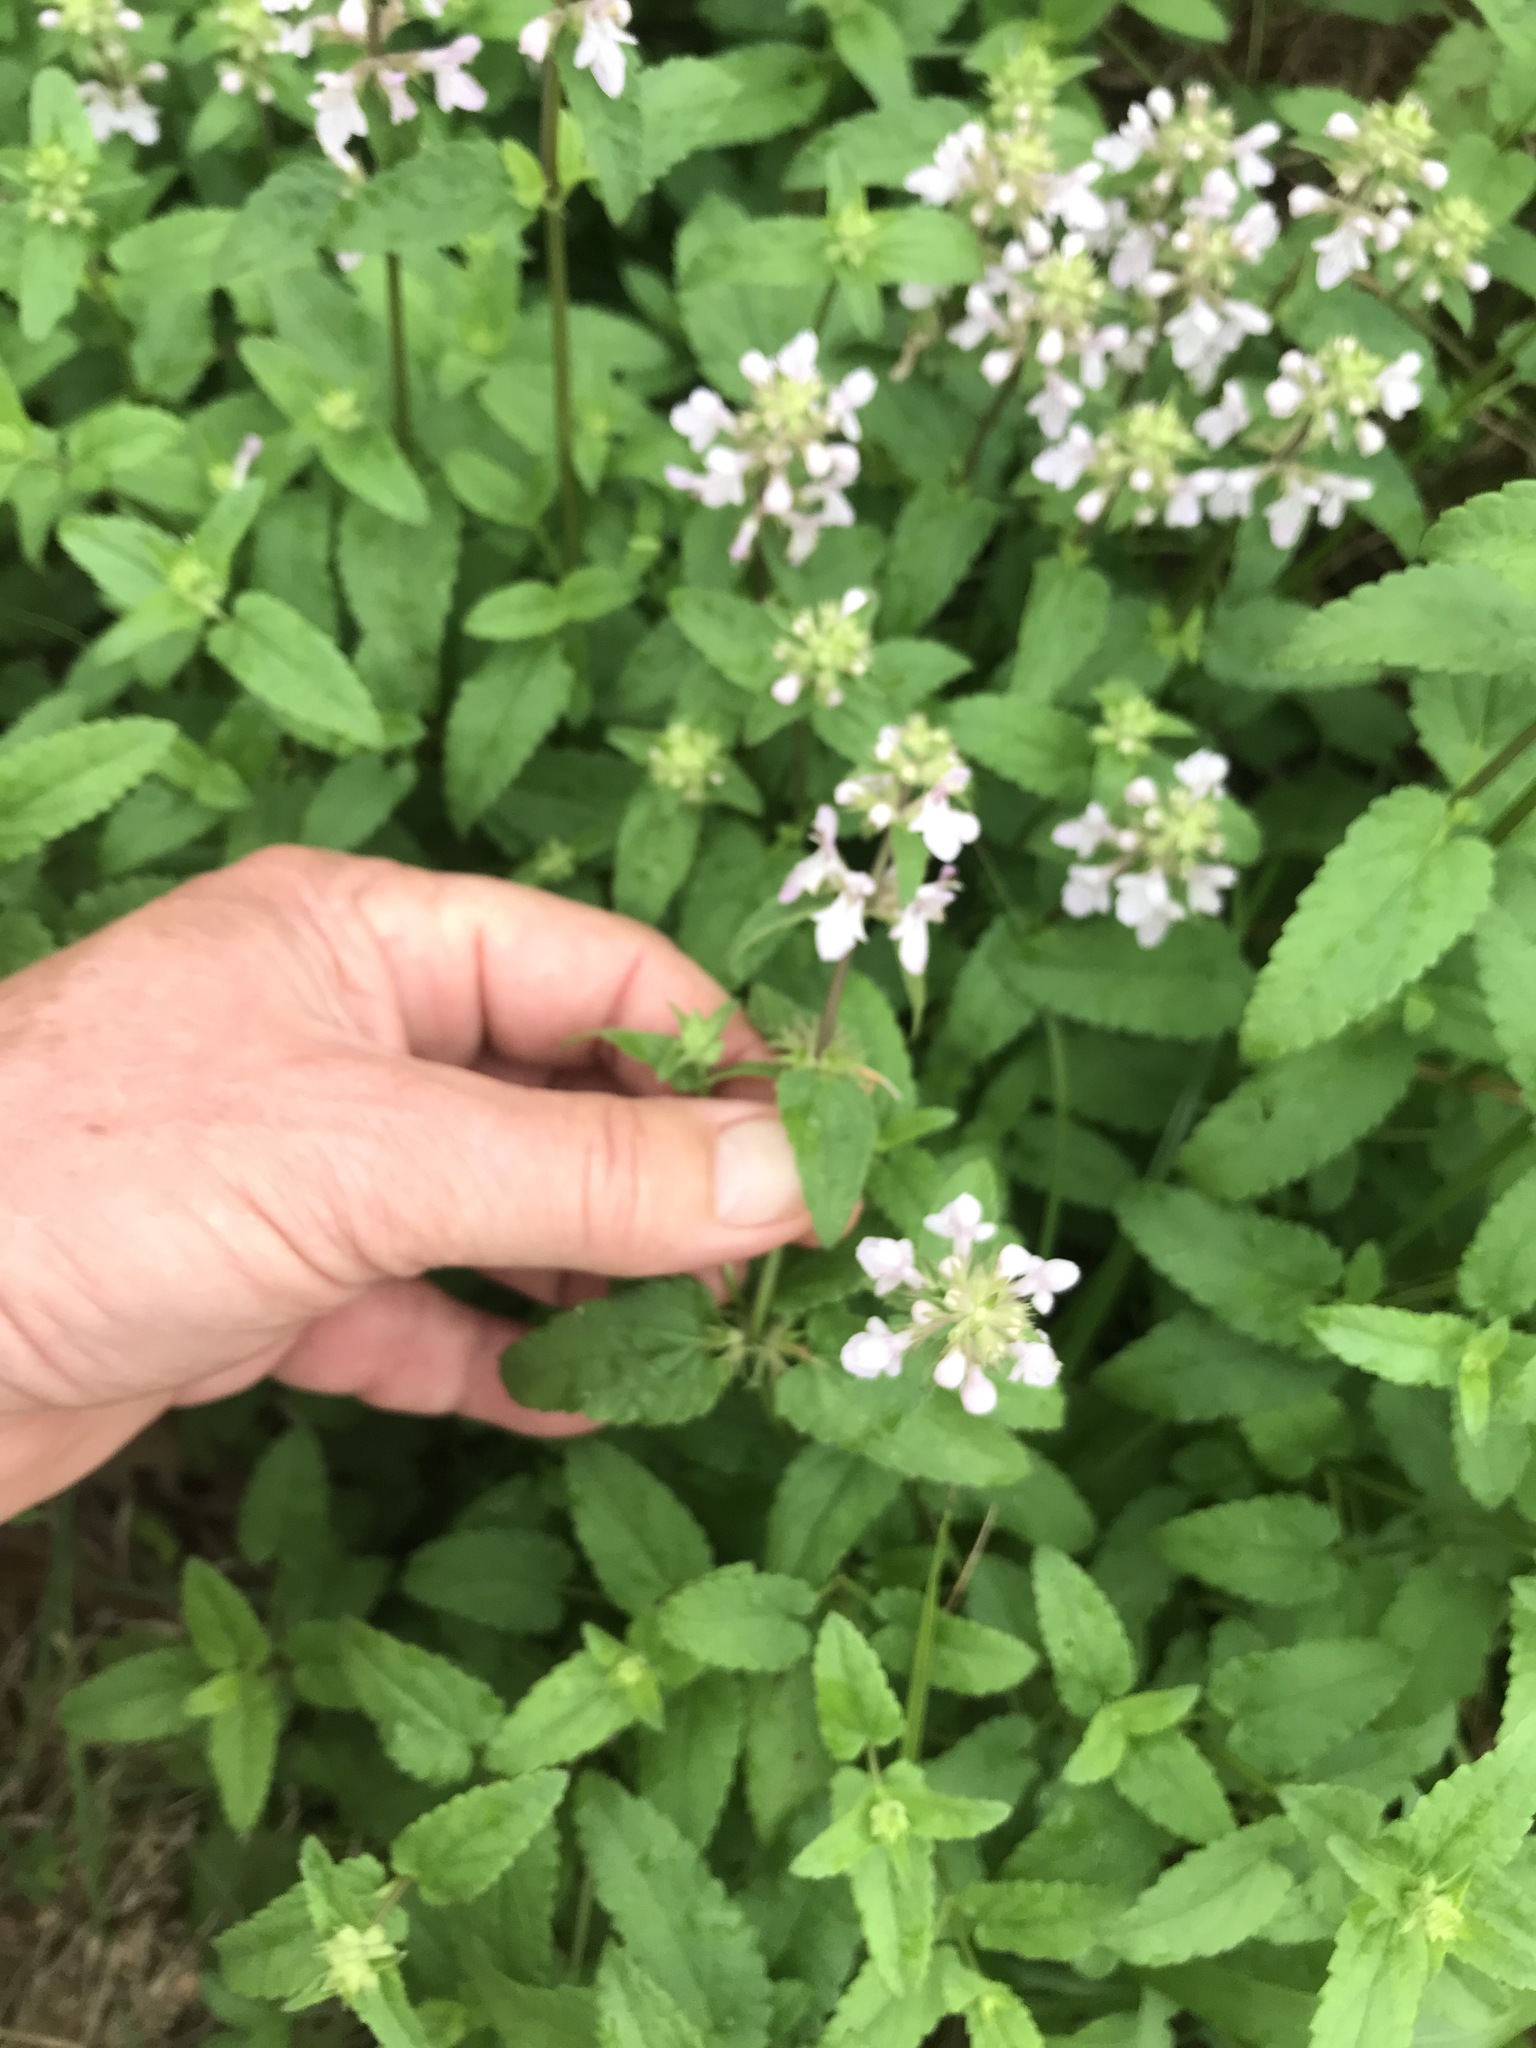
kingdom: Plantae
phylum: Tracheophyta
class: Magnoliopsida
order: Lamiales
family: Lamiaceae
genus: Stachys
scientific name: Stachys floridana
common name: Florida betony
